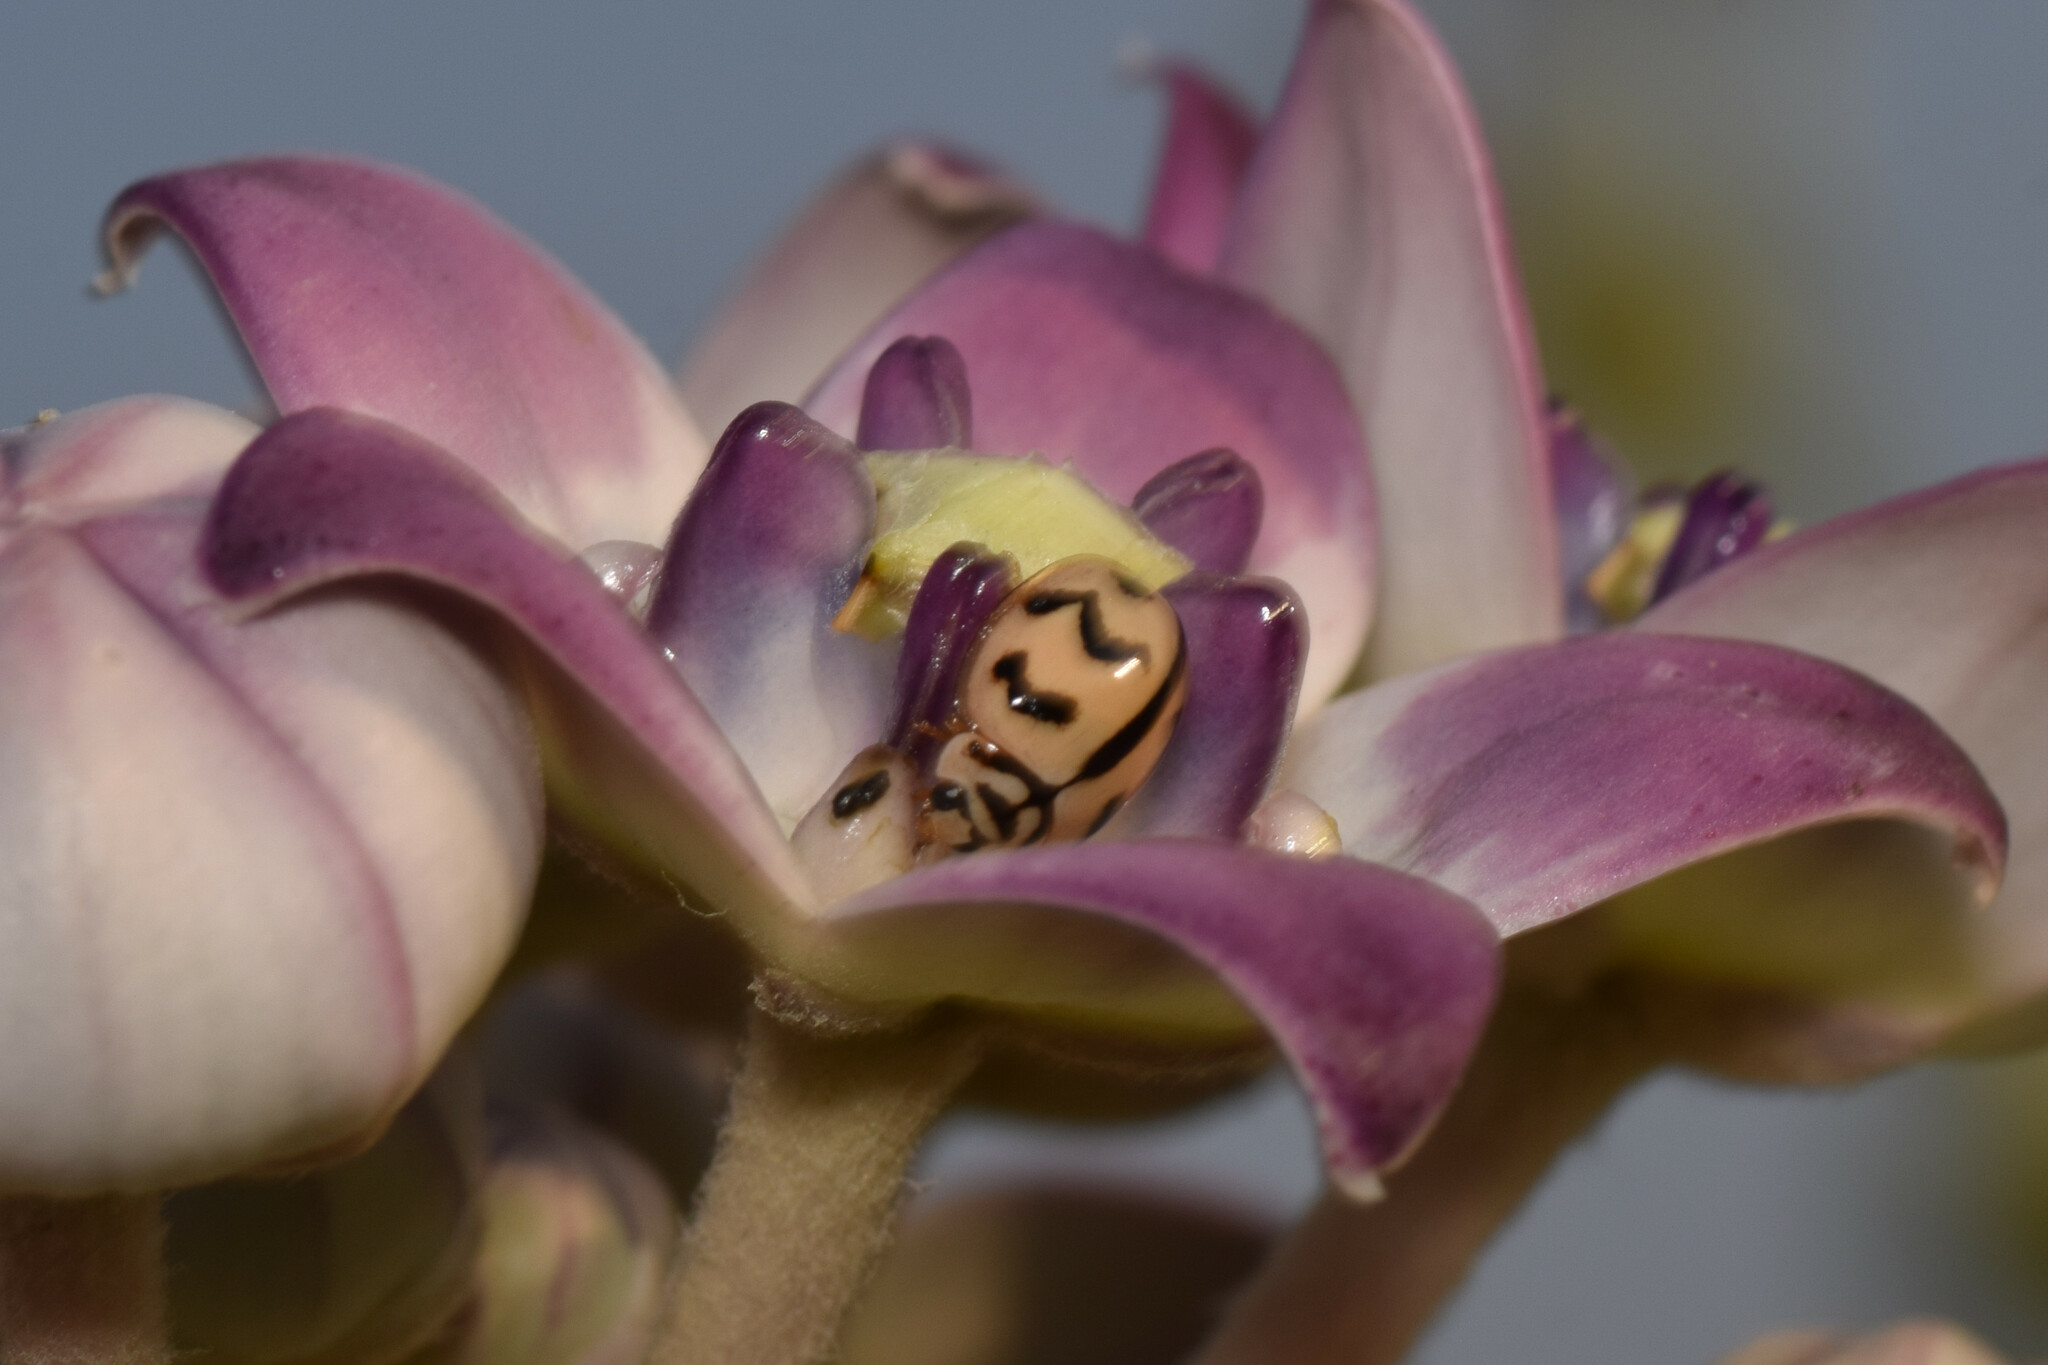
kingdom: Animalia
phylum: Arthropoda
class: Insecta
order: Coleoptera
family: Coccinellidae
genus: Cheilomenes
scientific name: Cheilomenes sexmaculata
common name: Ladybird beetle
